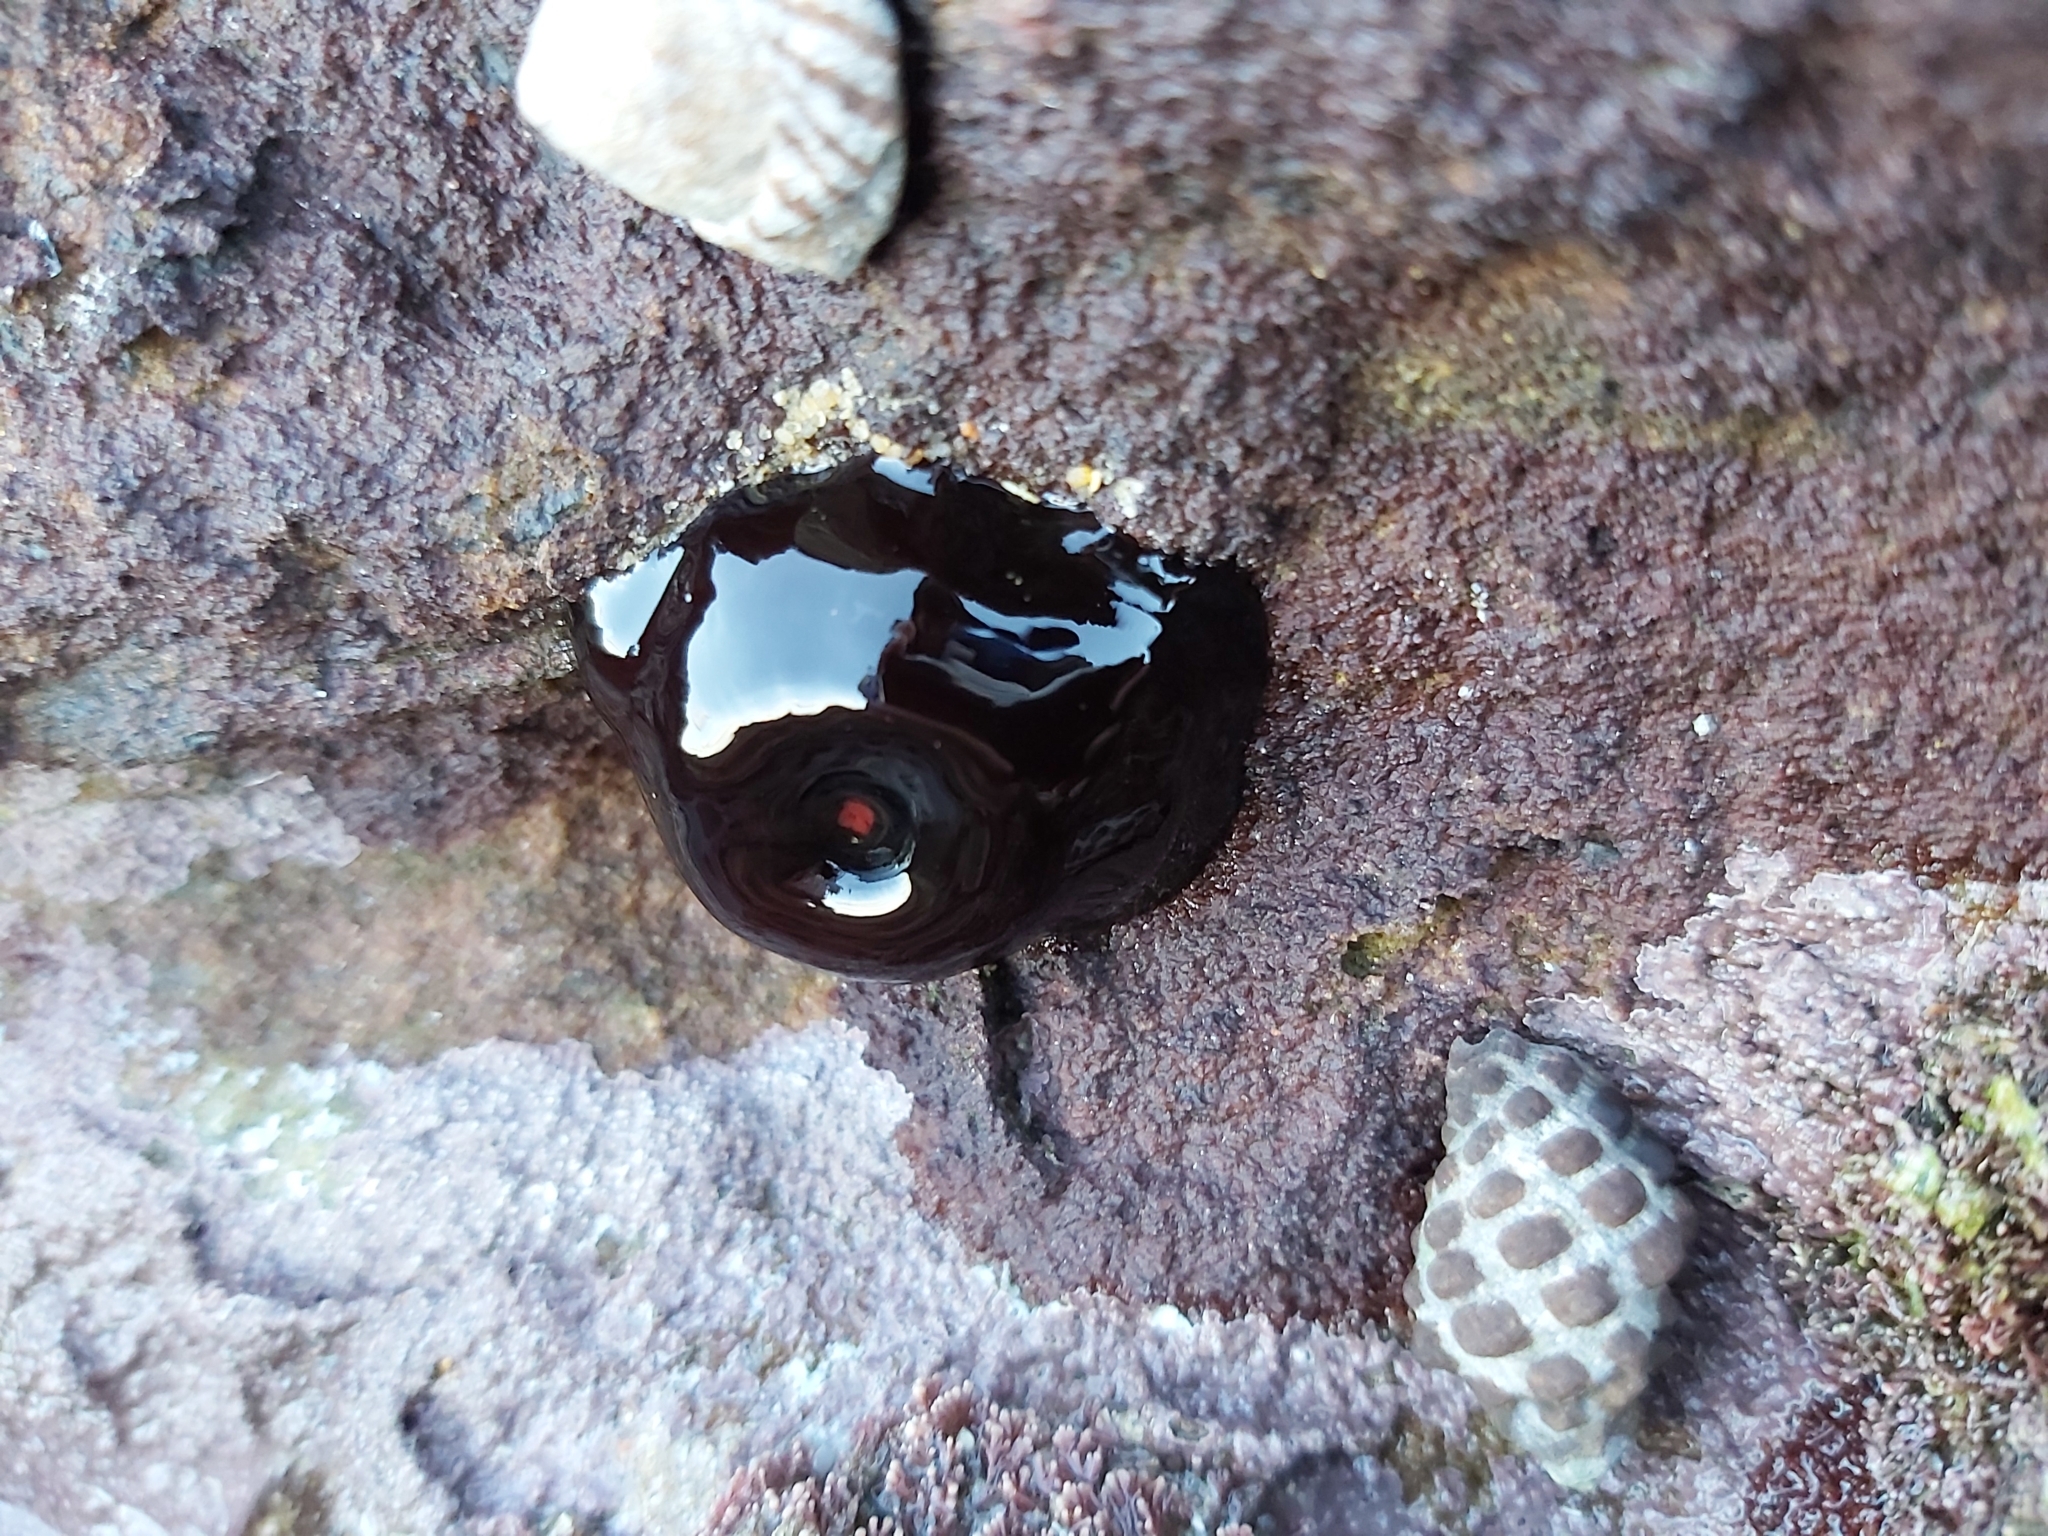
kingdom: Animalia
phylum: Cnidaria
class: Anthozoa
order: Actiniaria
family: Actiniidae
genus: Actinia
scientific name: Actinia tenebrosa
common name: Waratah anemone
